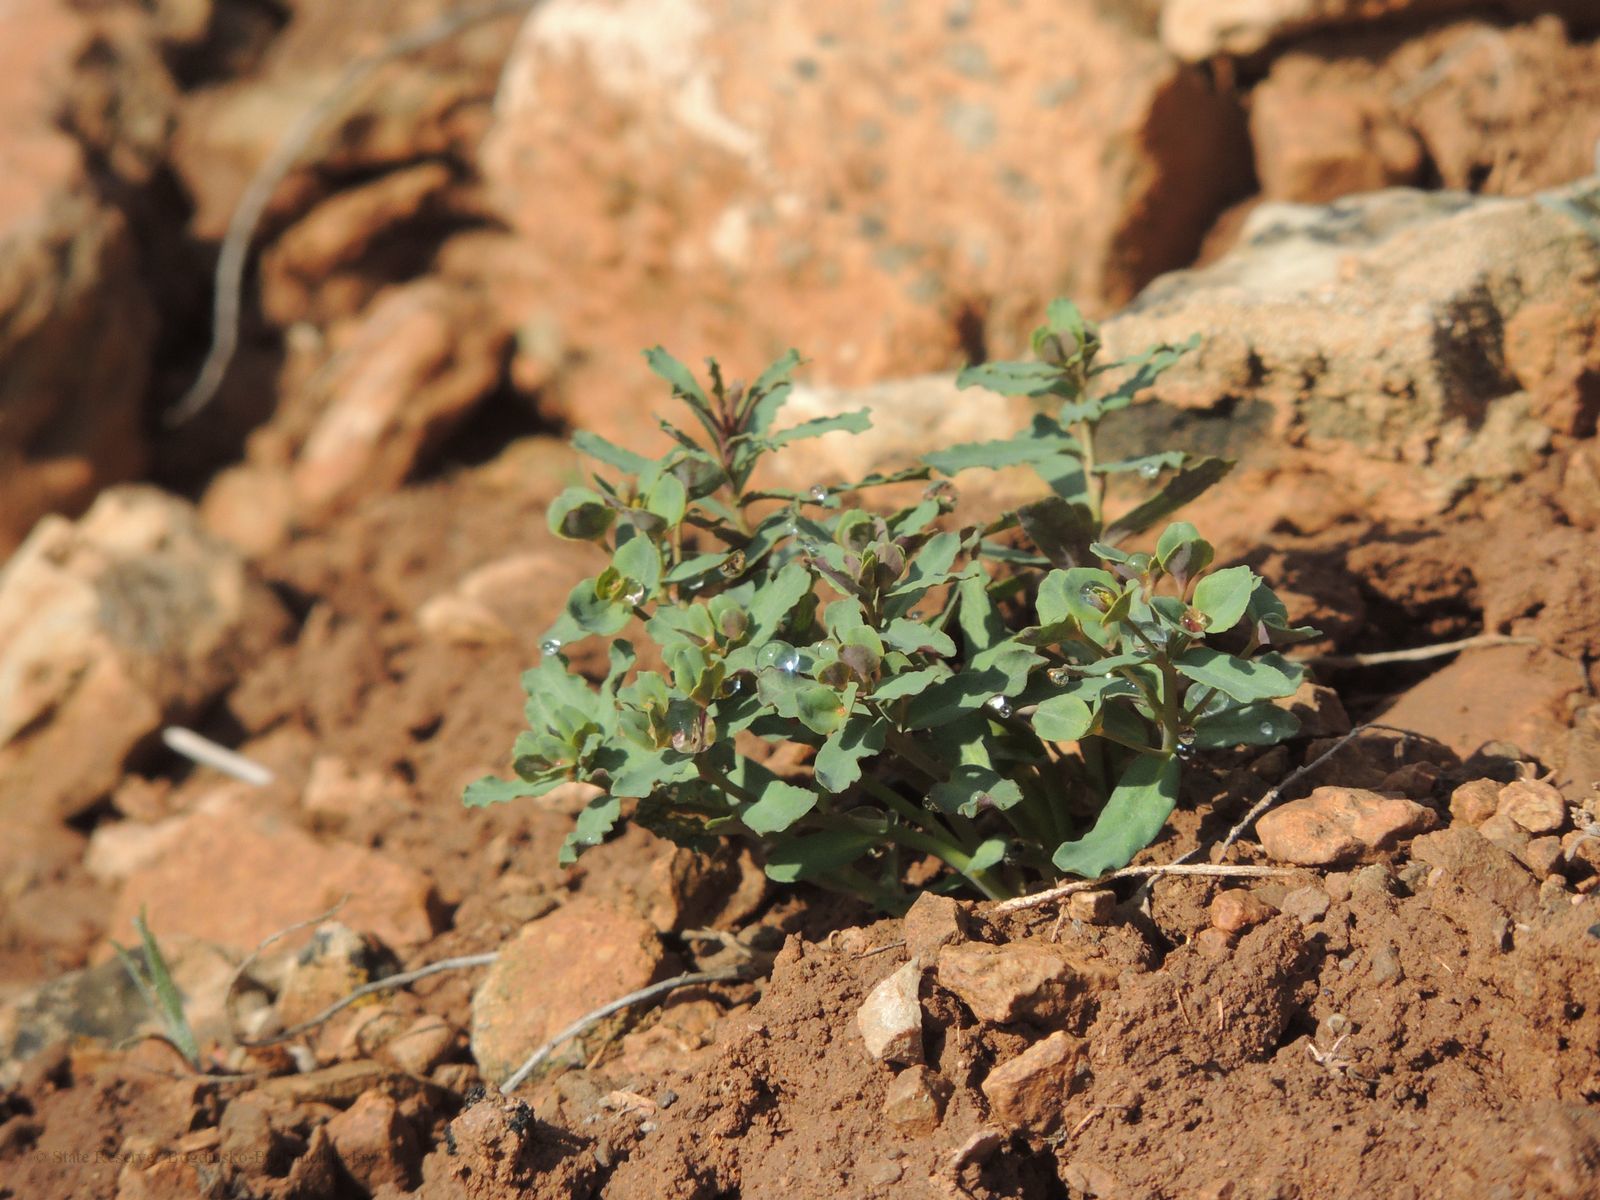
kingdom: Plantae
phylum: Tracheophyta
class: Magnoliopsida
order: Malpighiales
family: Euphorbiaceae
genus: Euphorbia
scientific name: Euphorbia undulata
